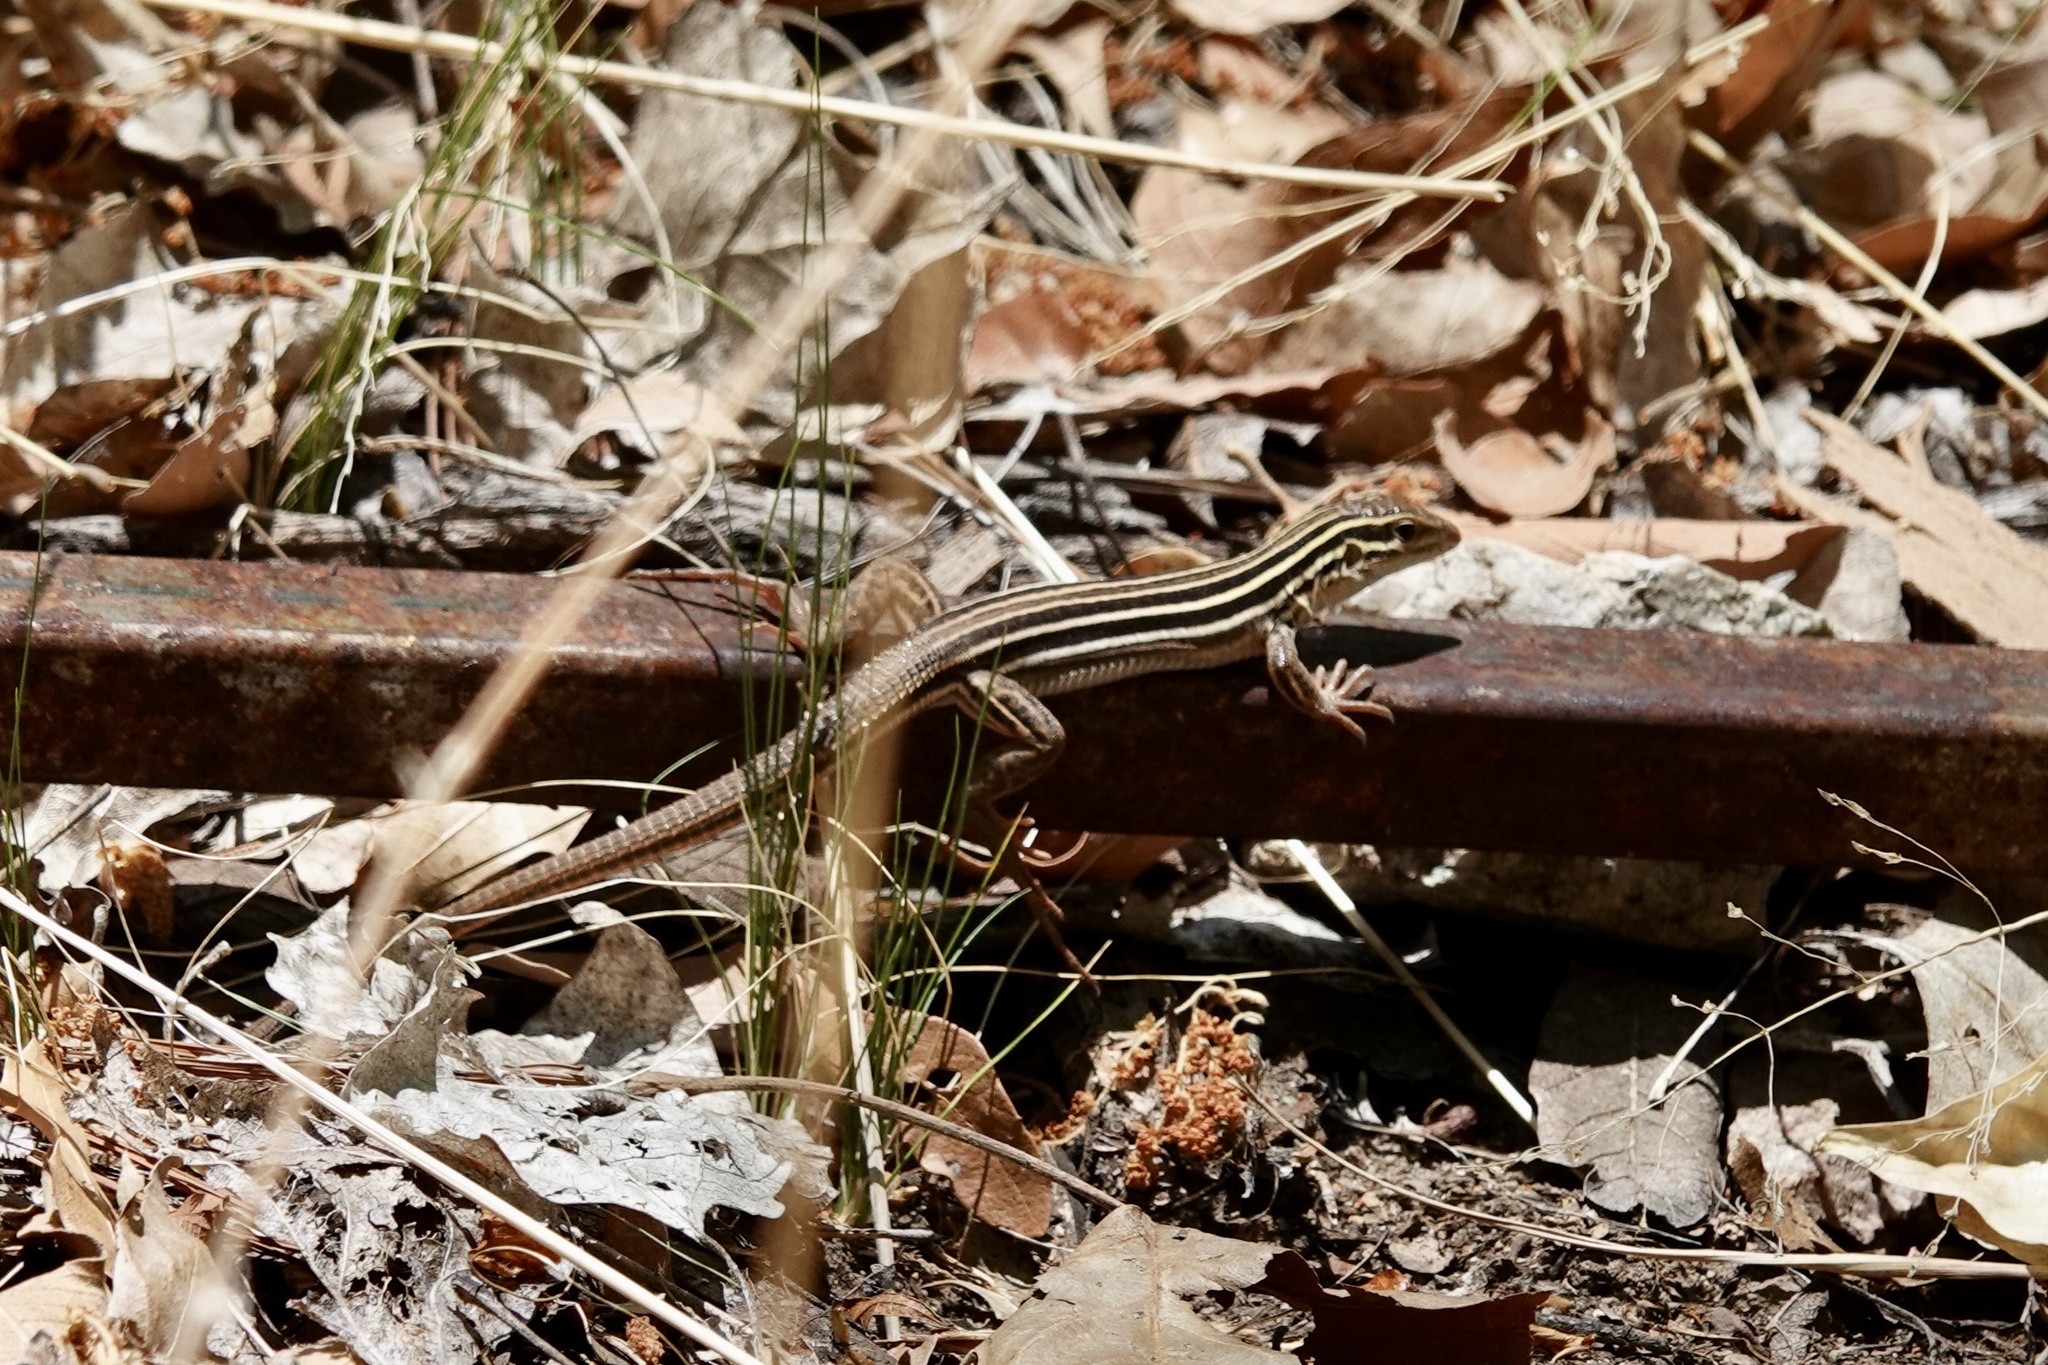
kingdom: Animalia
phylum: Chordata
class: Squamata
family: Teiidae
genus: Aspidoscelis
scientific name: Aspidoscelis sonorae
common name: Sonoran spotted whiptail
